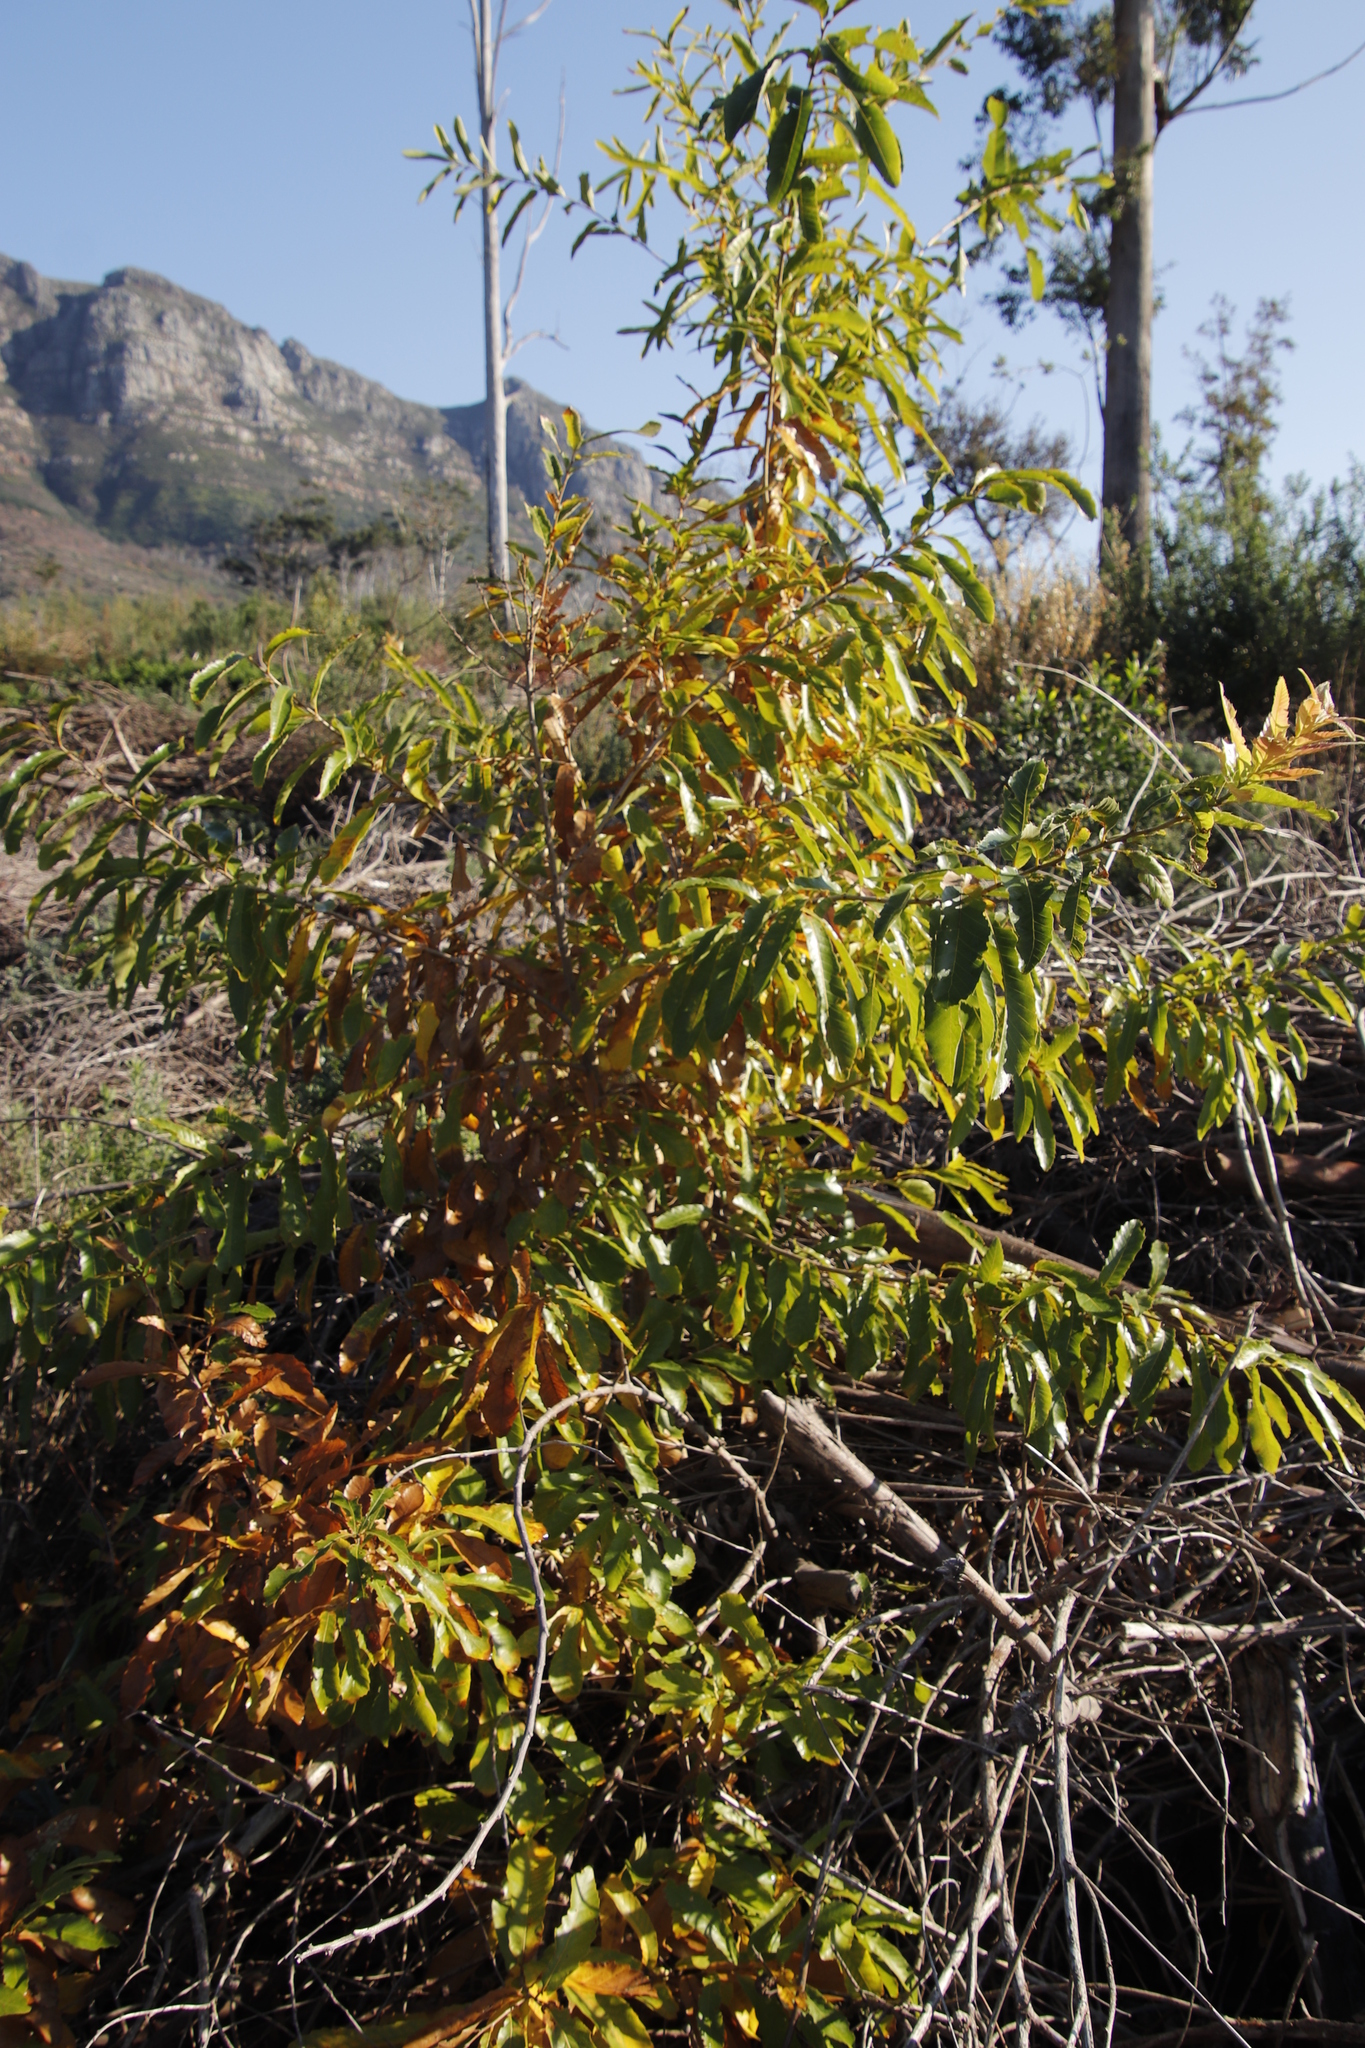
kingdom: Plantae
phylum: Tracheophyta
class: Magnoliopsida
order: Rosales
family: Rosaceae
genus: Prunus
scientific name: Prunus persica
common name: Peach
